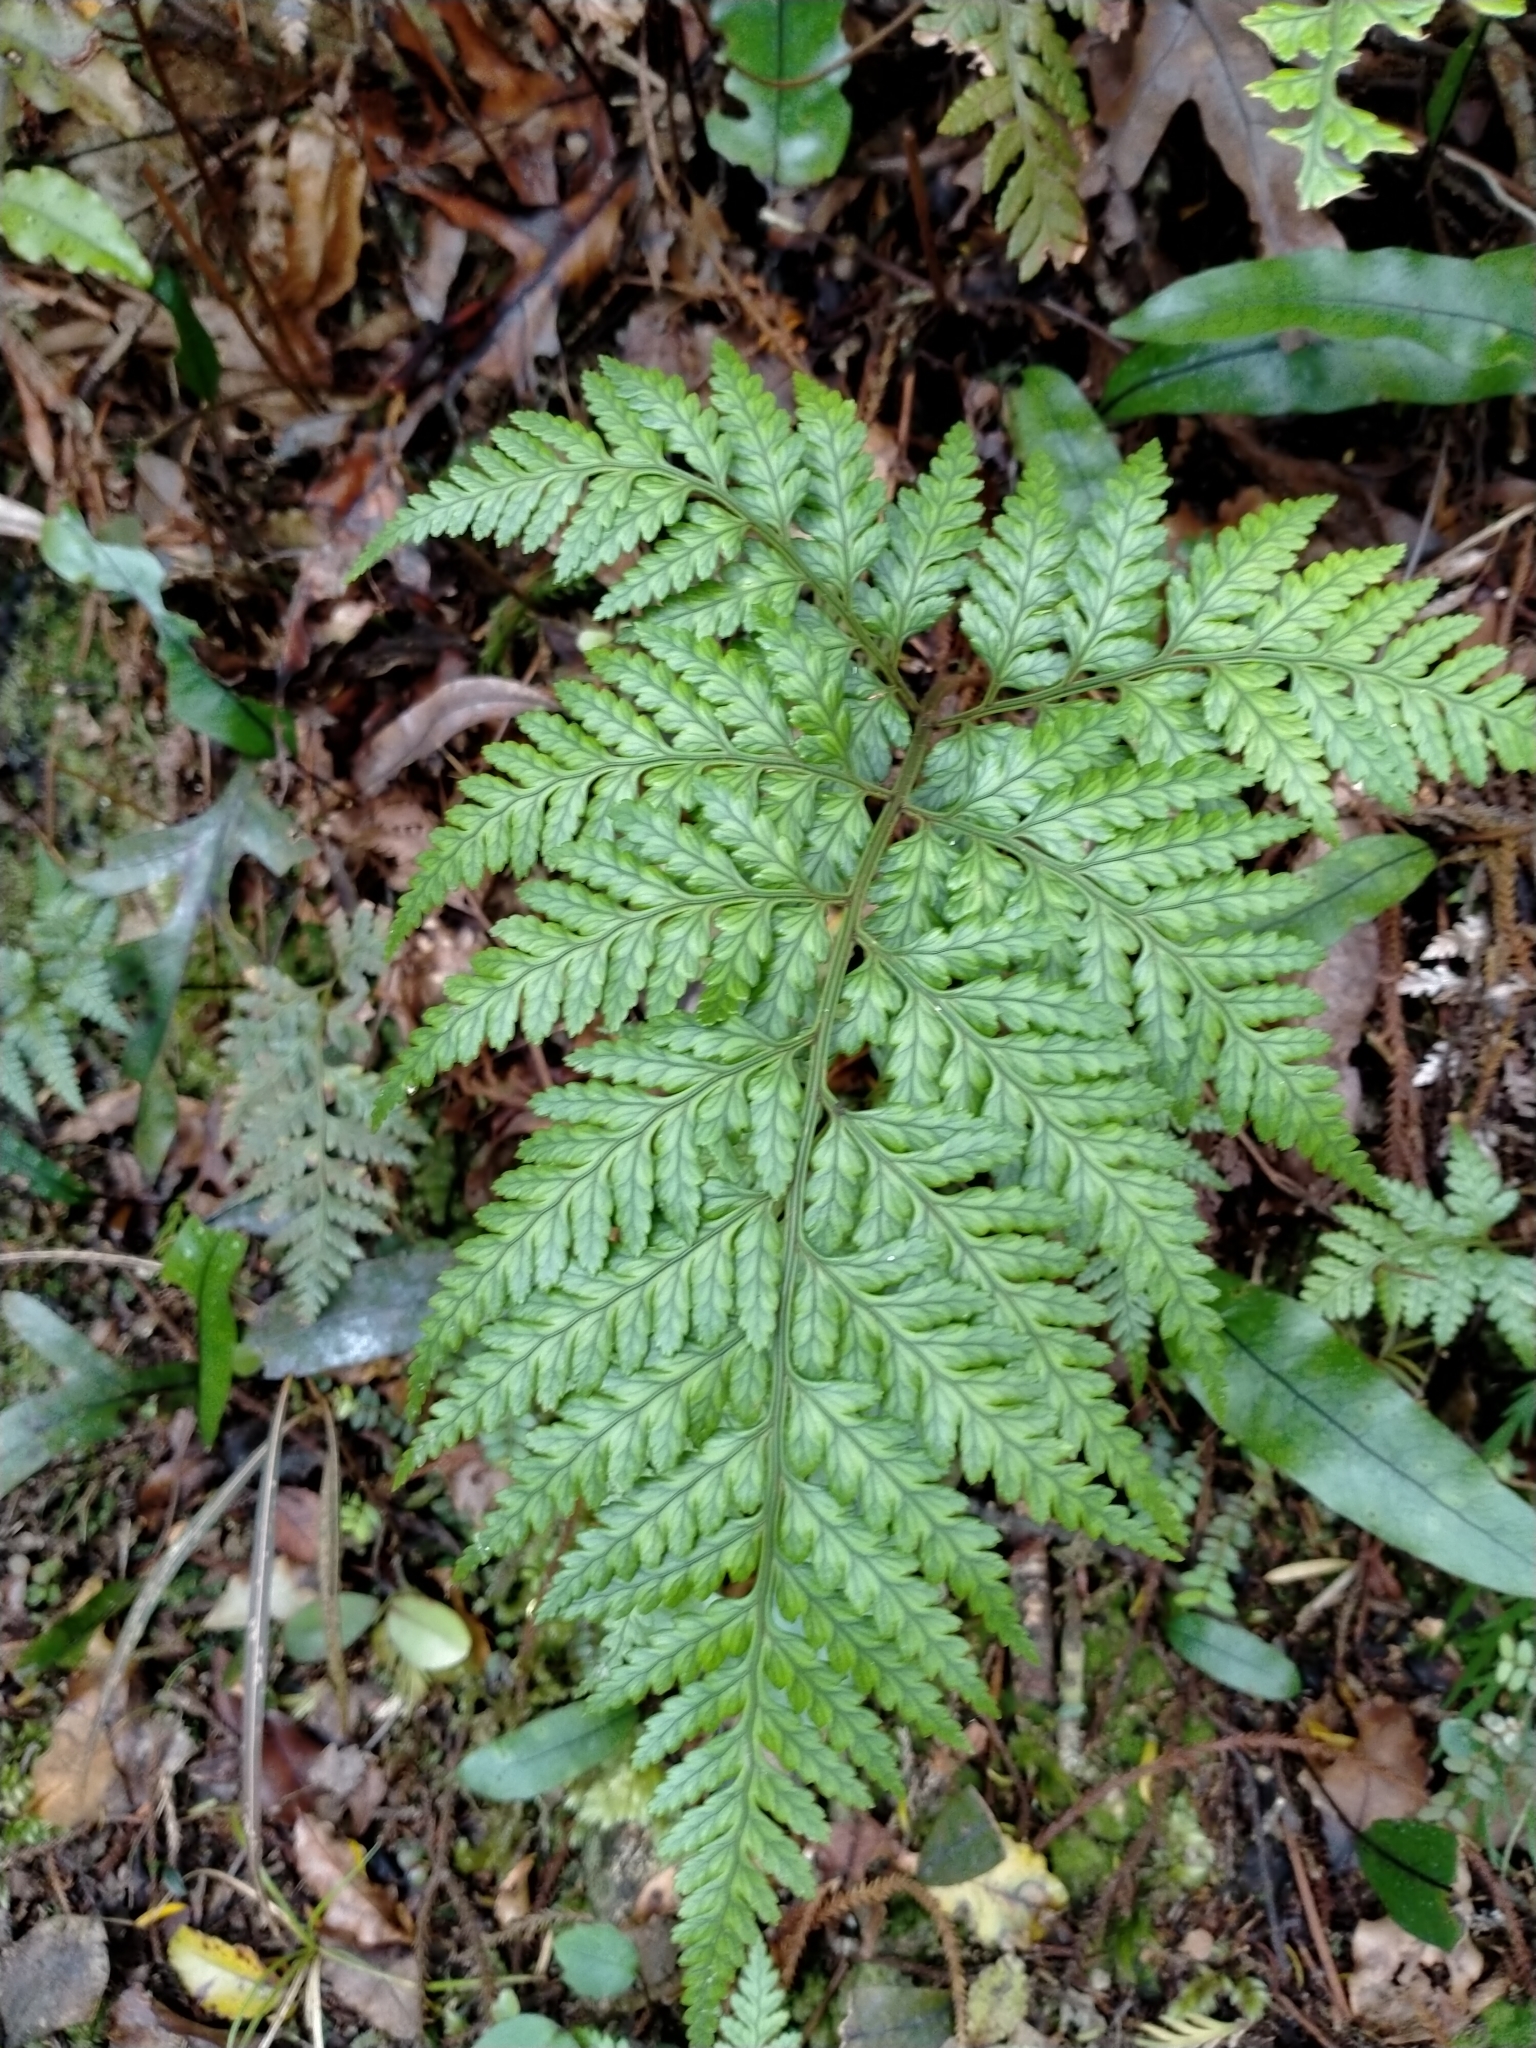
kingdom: Plantae
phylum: Tracheophyta
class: Polypodiopsida
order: Polypodiales
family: Dryopteridaceae
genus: Rumohra
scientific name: Rumohra adiantiformis
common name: Leather fern
